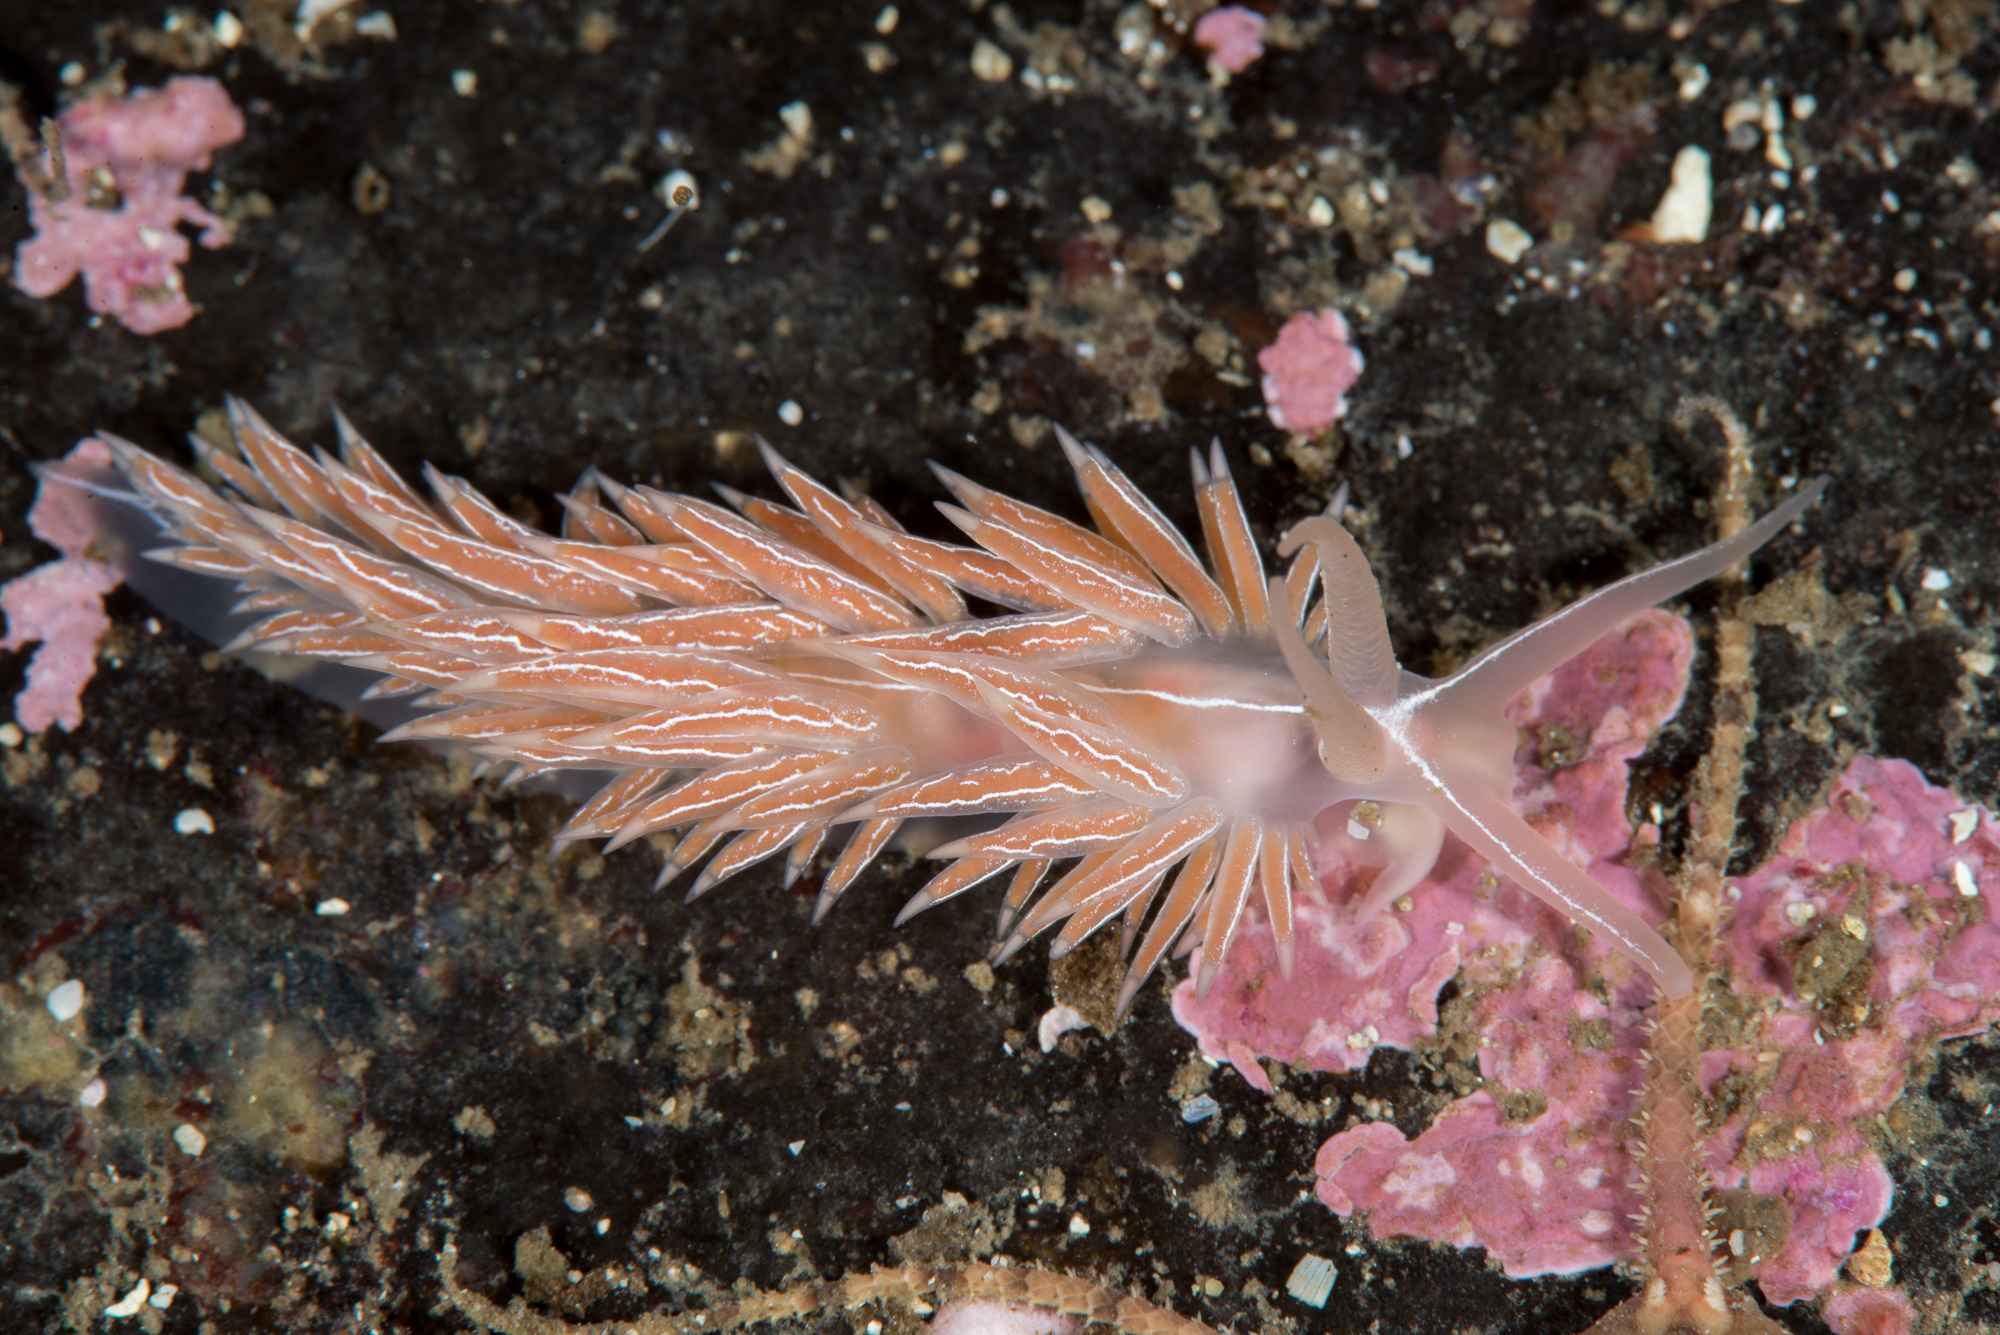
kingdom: Animalia
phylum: Mollusca
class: Gastropoda
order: Nudibranchia
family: Coryphellidae
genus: Coryphella
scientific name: Coryphella chriskaugei
